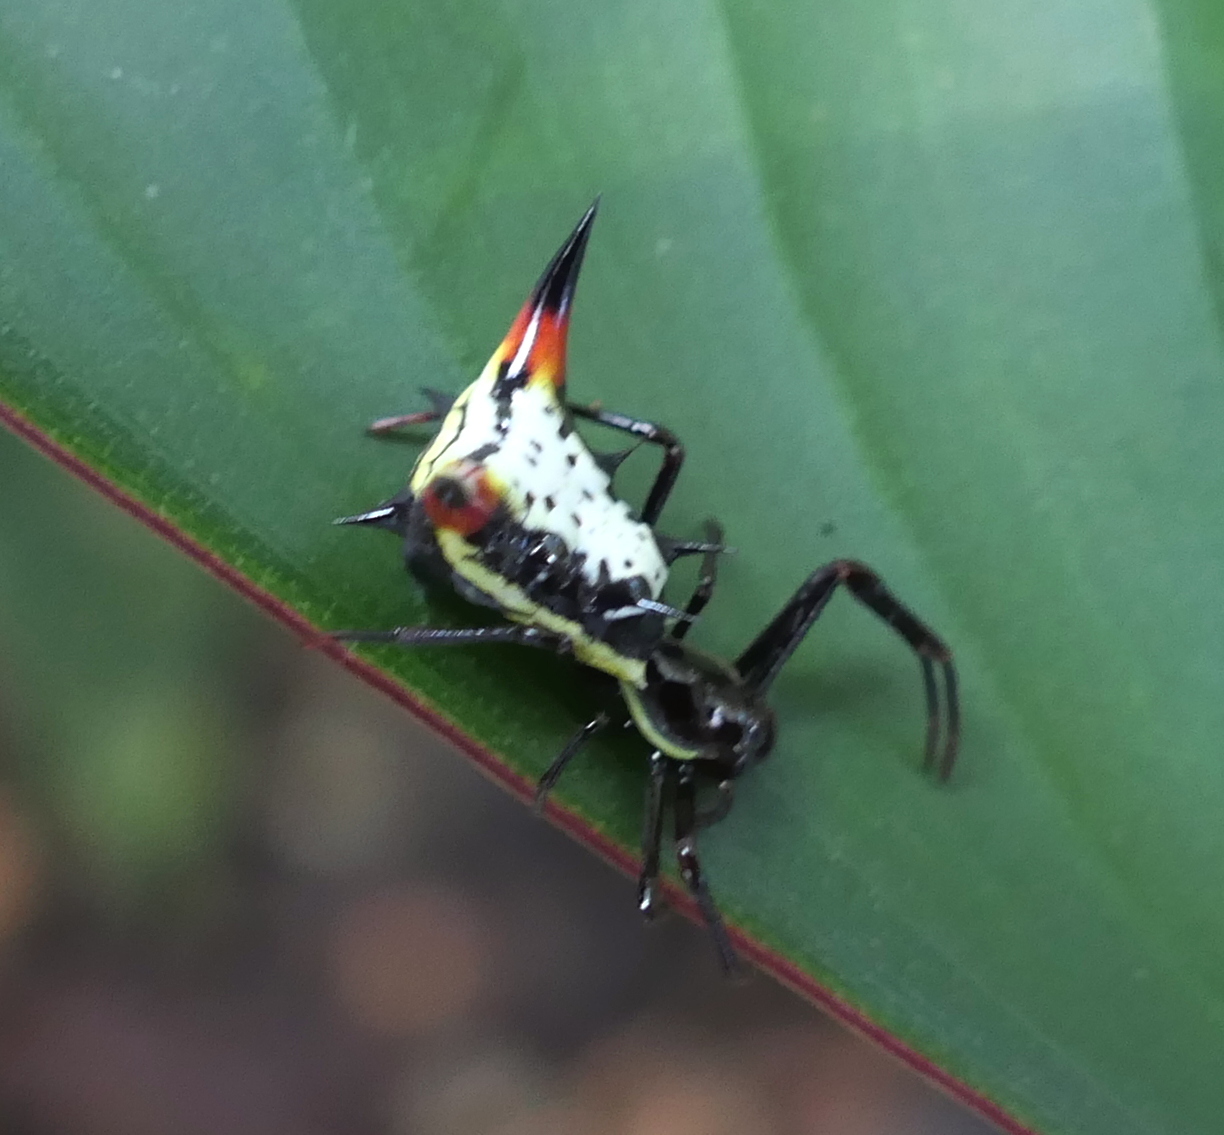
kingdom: Animalia
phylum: Arthropoda
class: Arachnida
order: Araneae
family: Araneidae
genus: Micrathena
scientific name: Micrathena schreibersi
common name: Orb weavers
